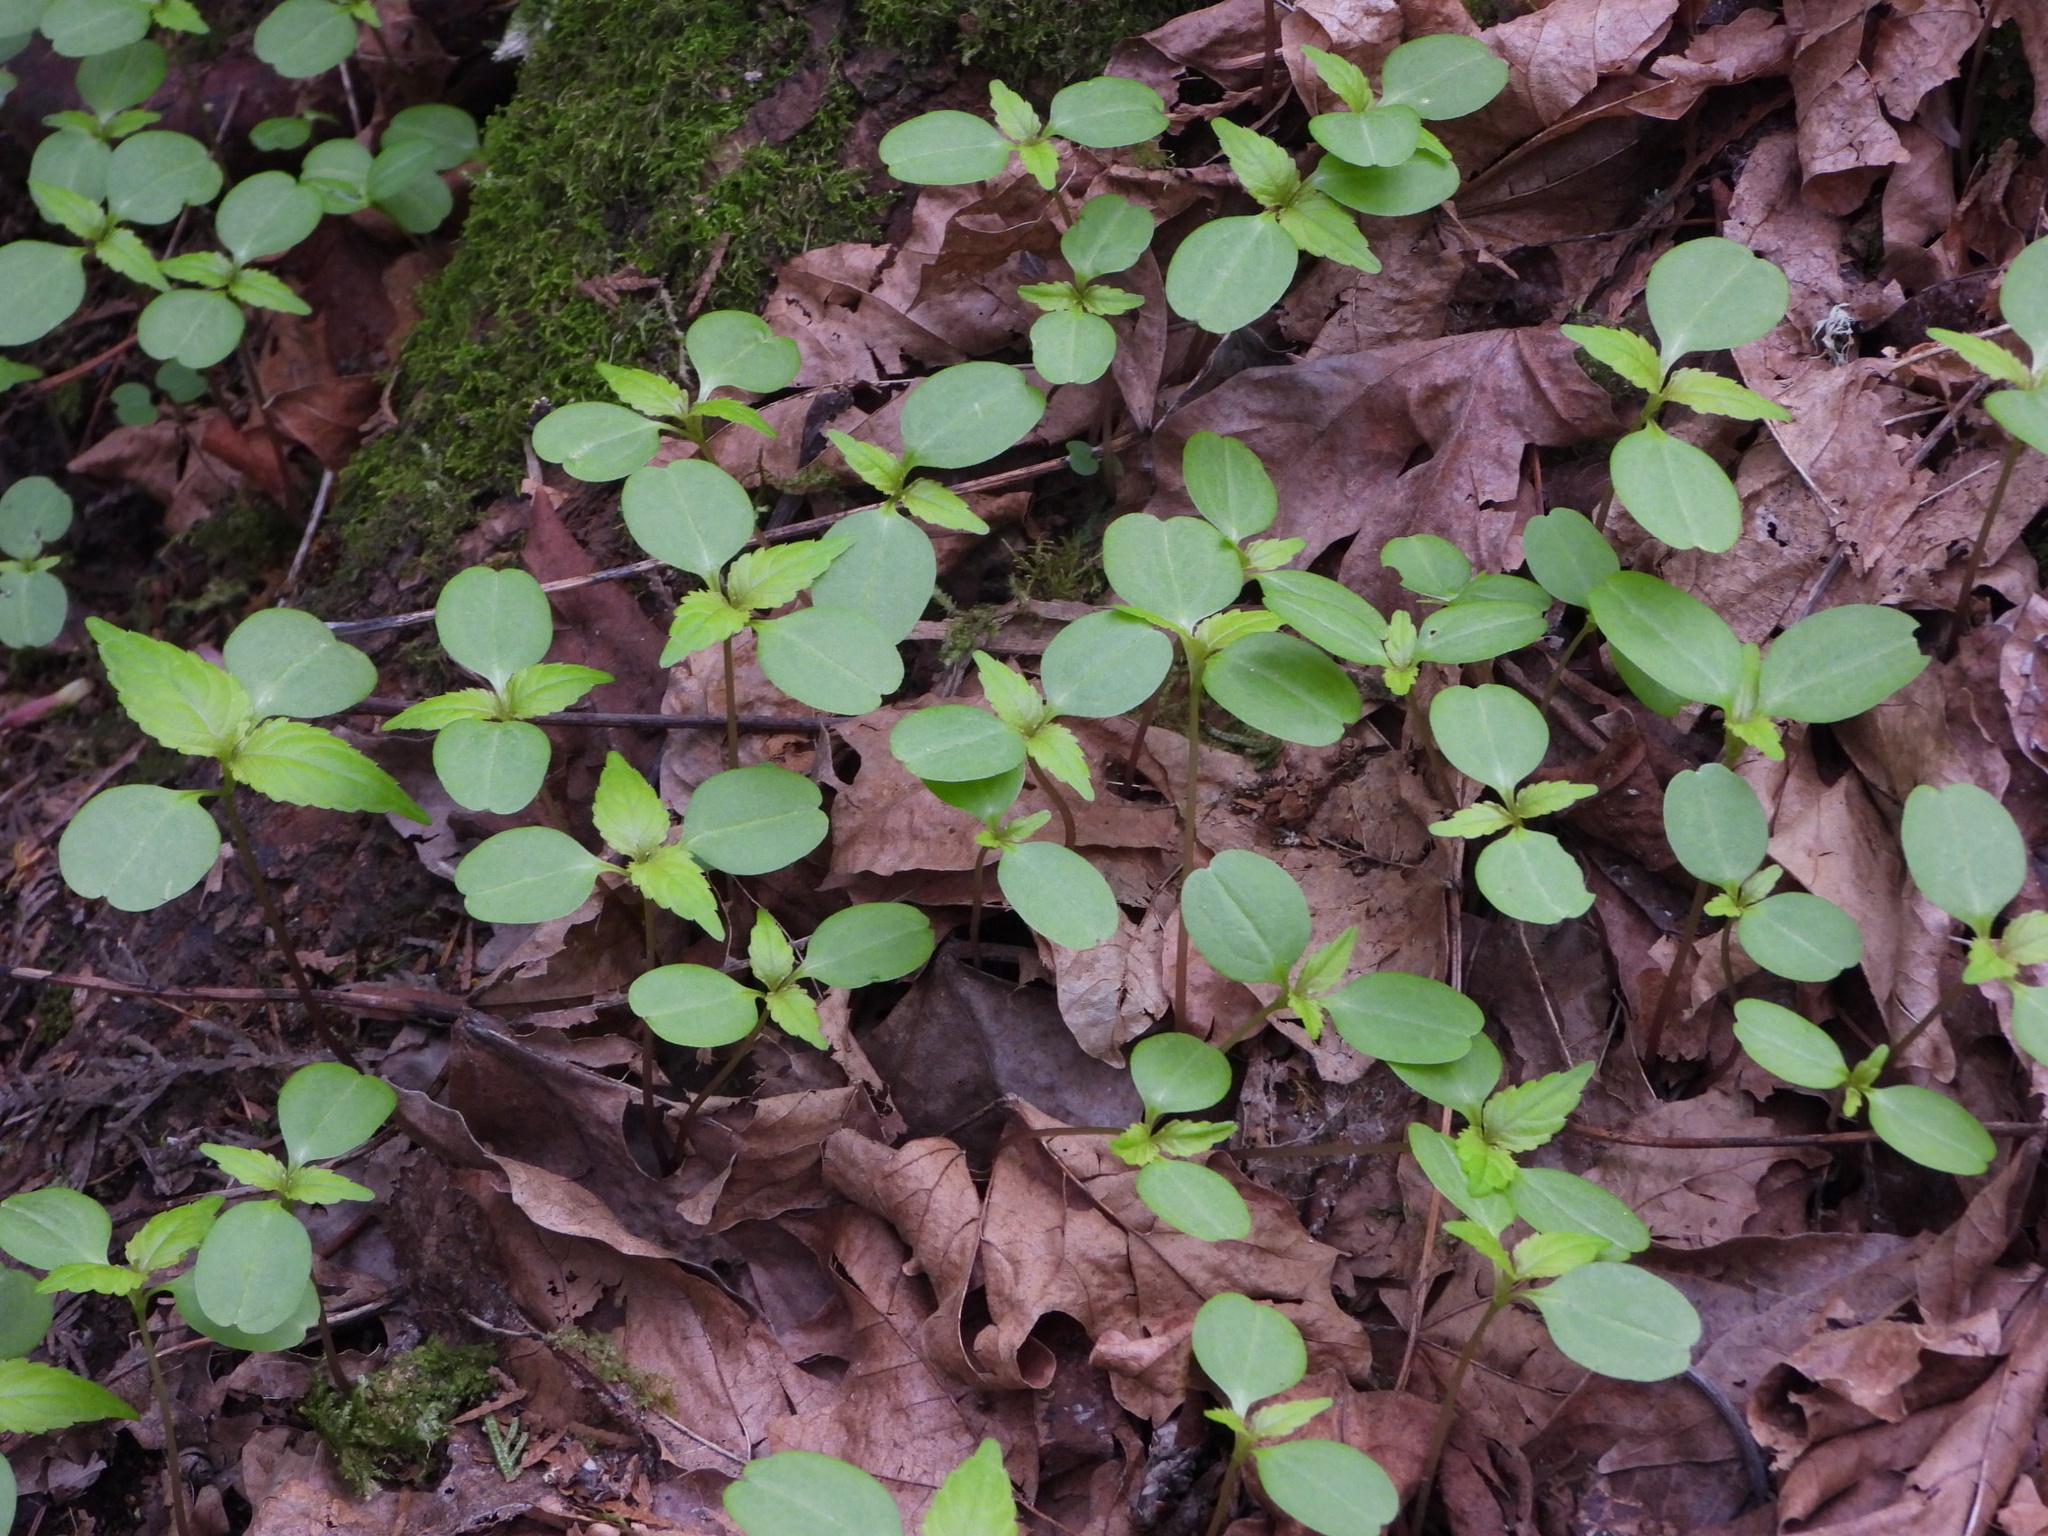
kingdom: Plantae
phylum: Tracheophyta
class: Magnoliopsida
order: Ericales
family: Balsaminaceae
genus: Impatiens
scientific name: Impatiens parviflora
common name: Small balsam
